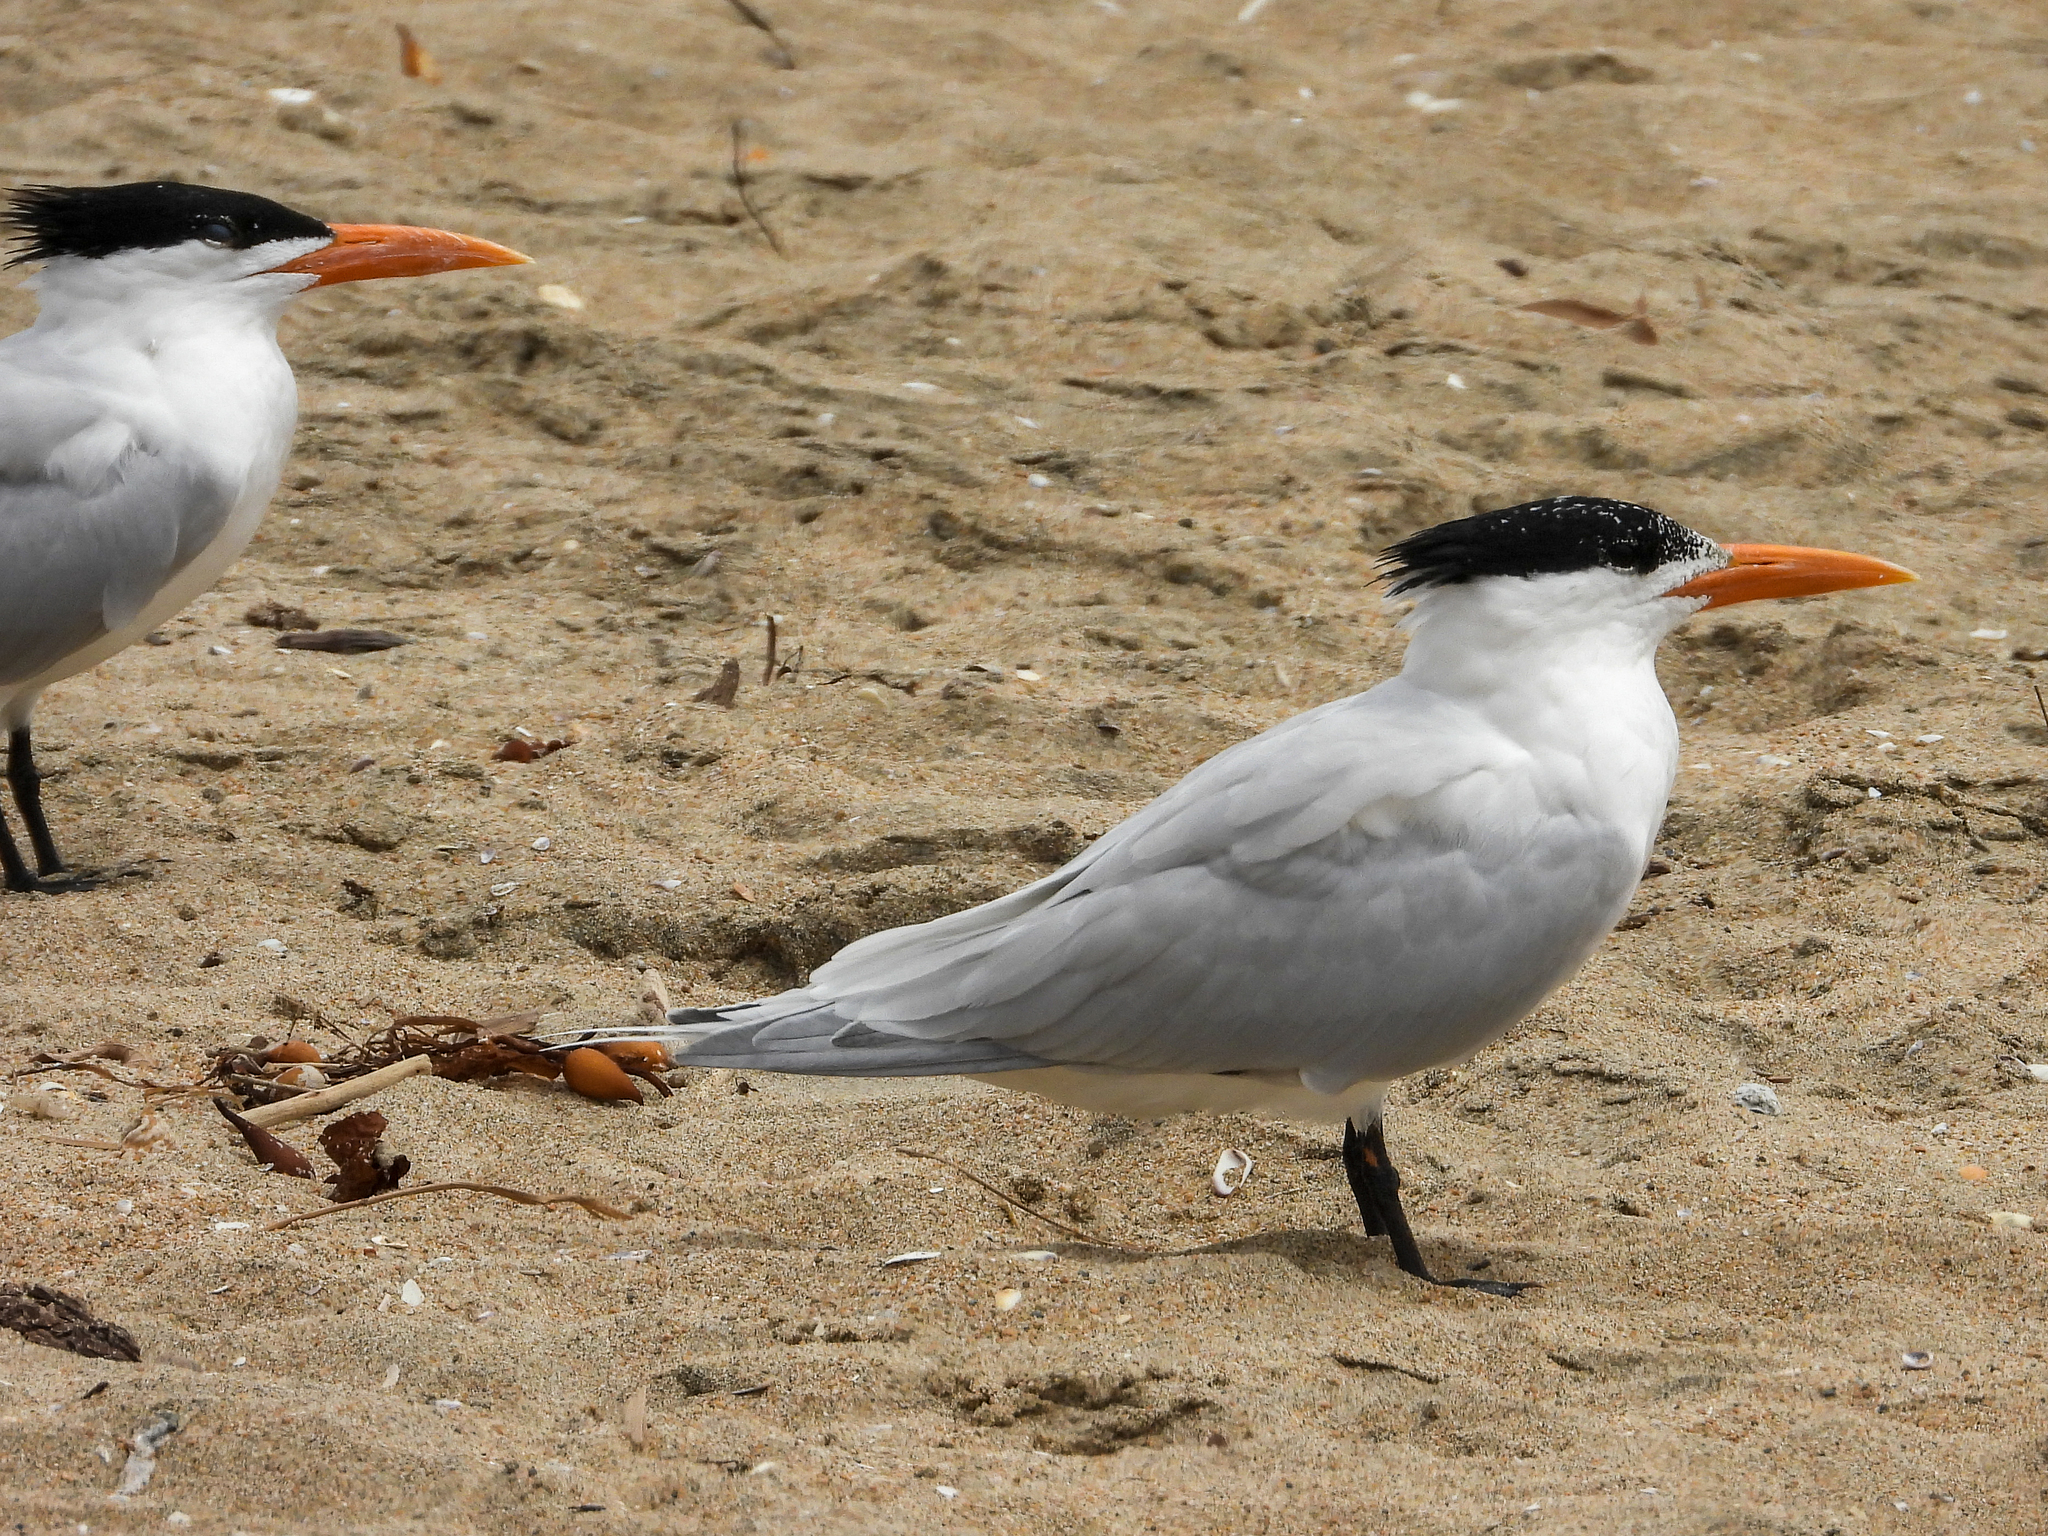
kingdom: Animalia
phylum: Chordata
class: Aves
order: Charadriiformes
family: Laridae
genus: Thalasseus
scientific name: Thalasseus maximus
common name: Royal tern
